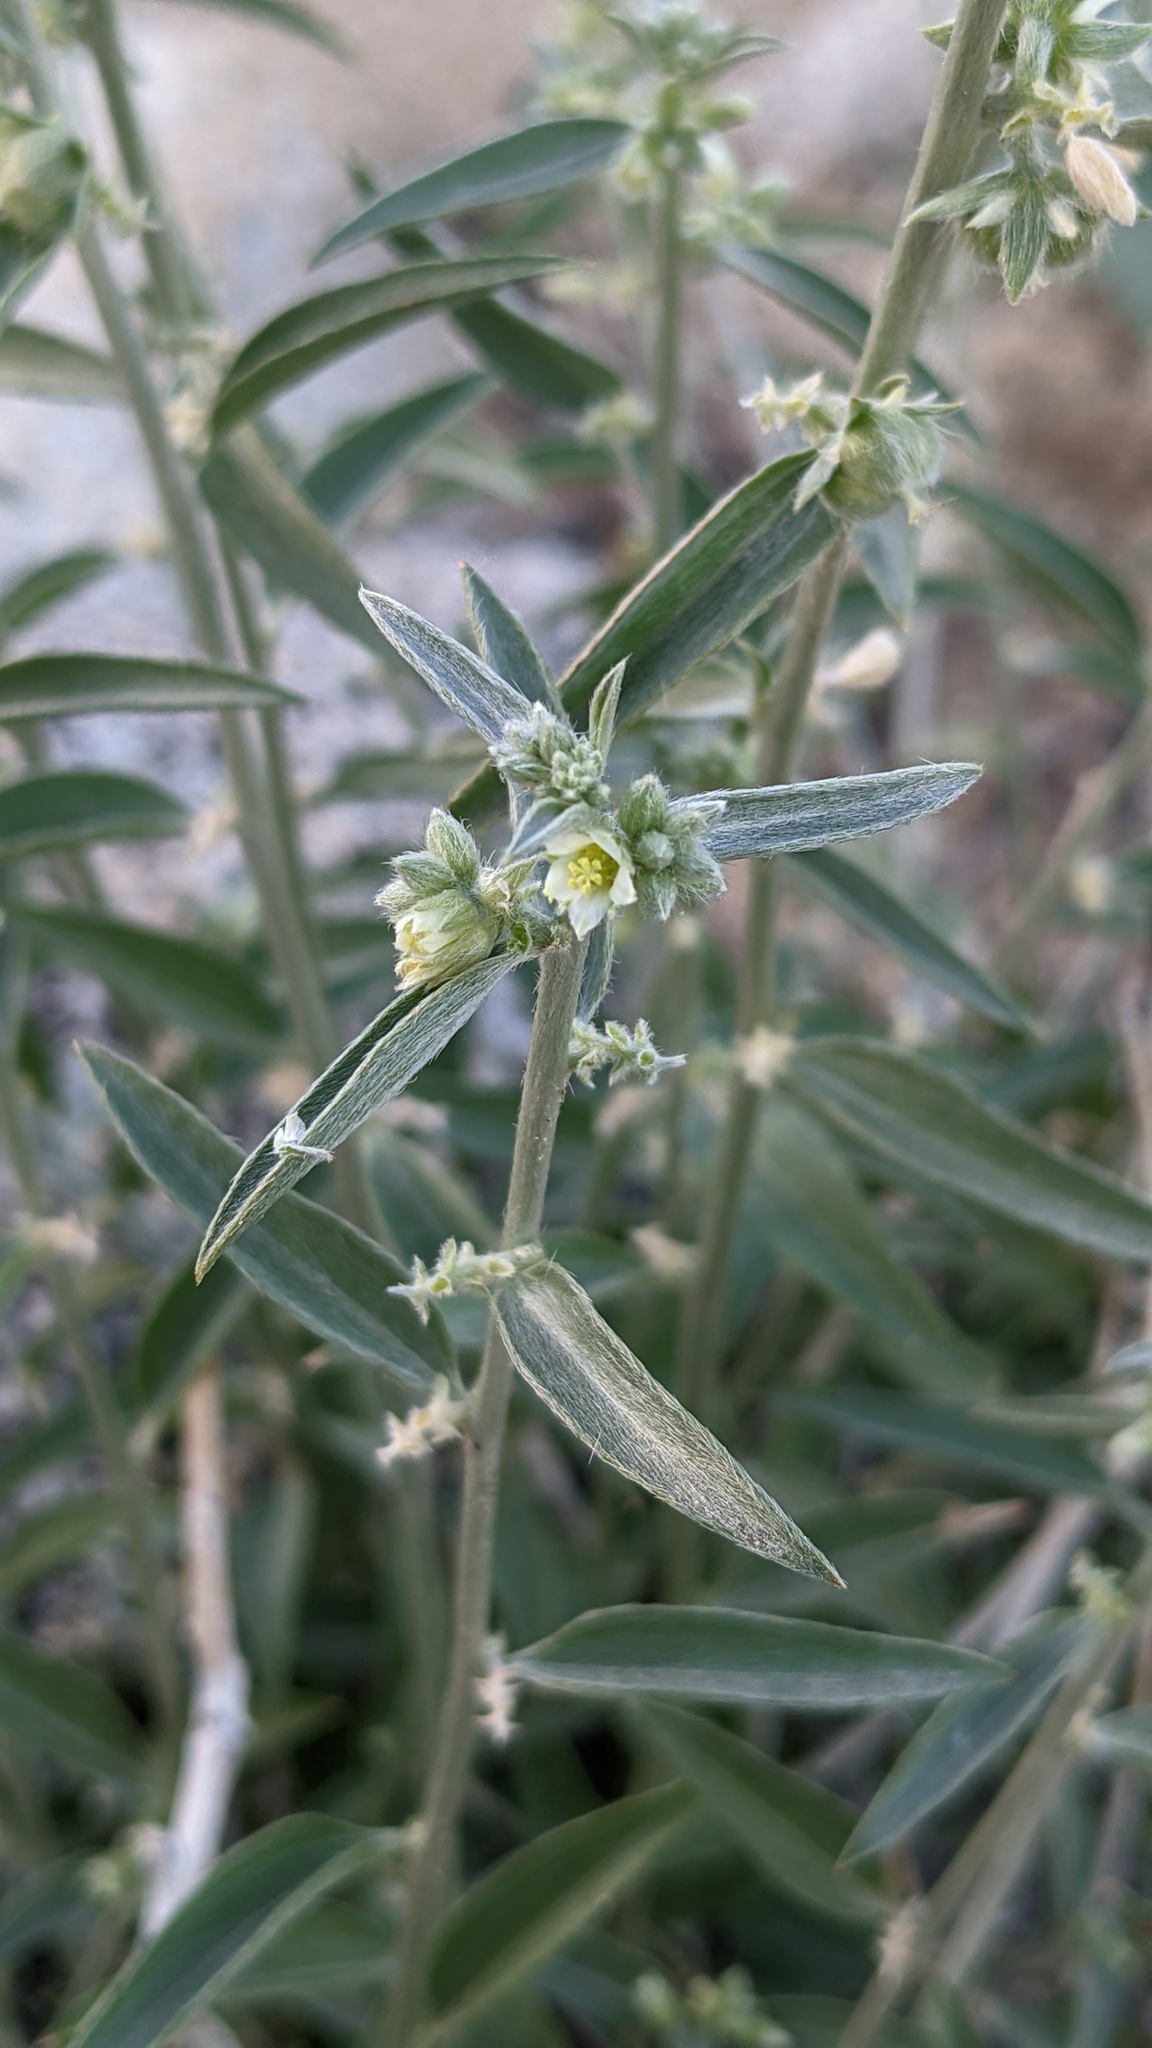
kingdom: Plantae
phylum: Tracheophyta
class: Magnoliopsida
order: Malpighiales
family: Euphorbiaceae
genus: Ditaxis
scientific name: Ditaxis lanceolata
